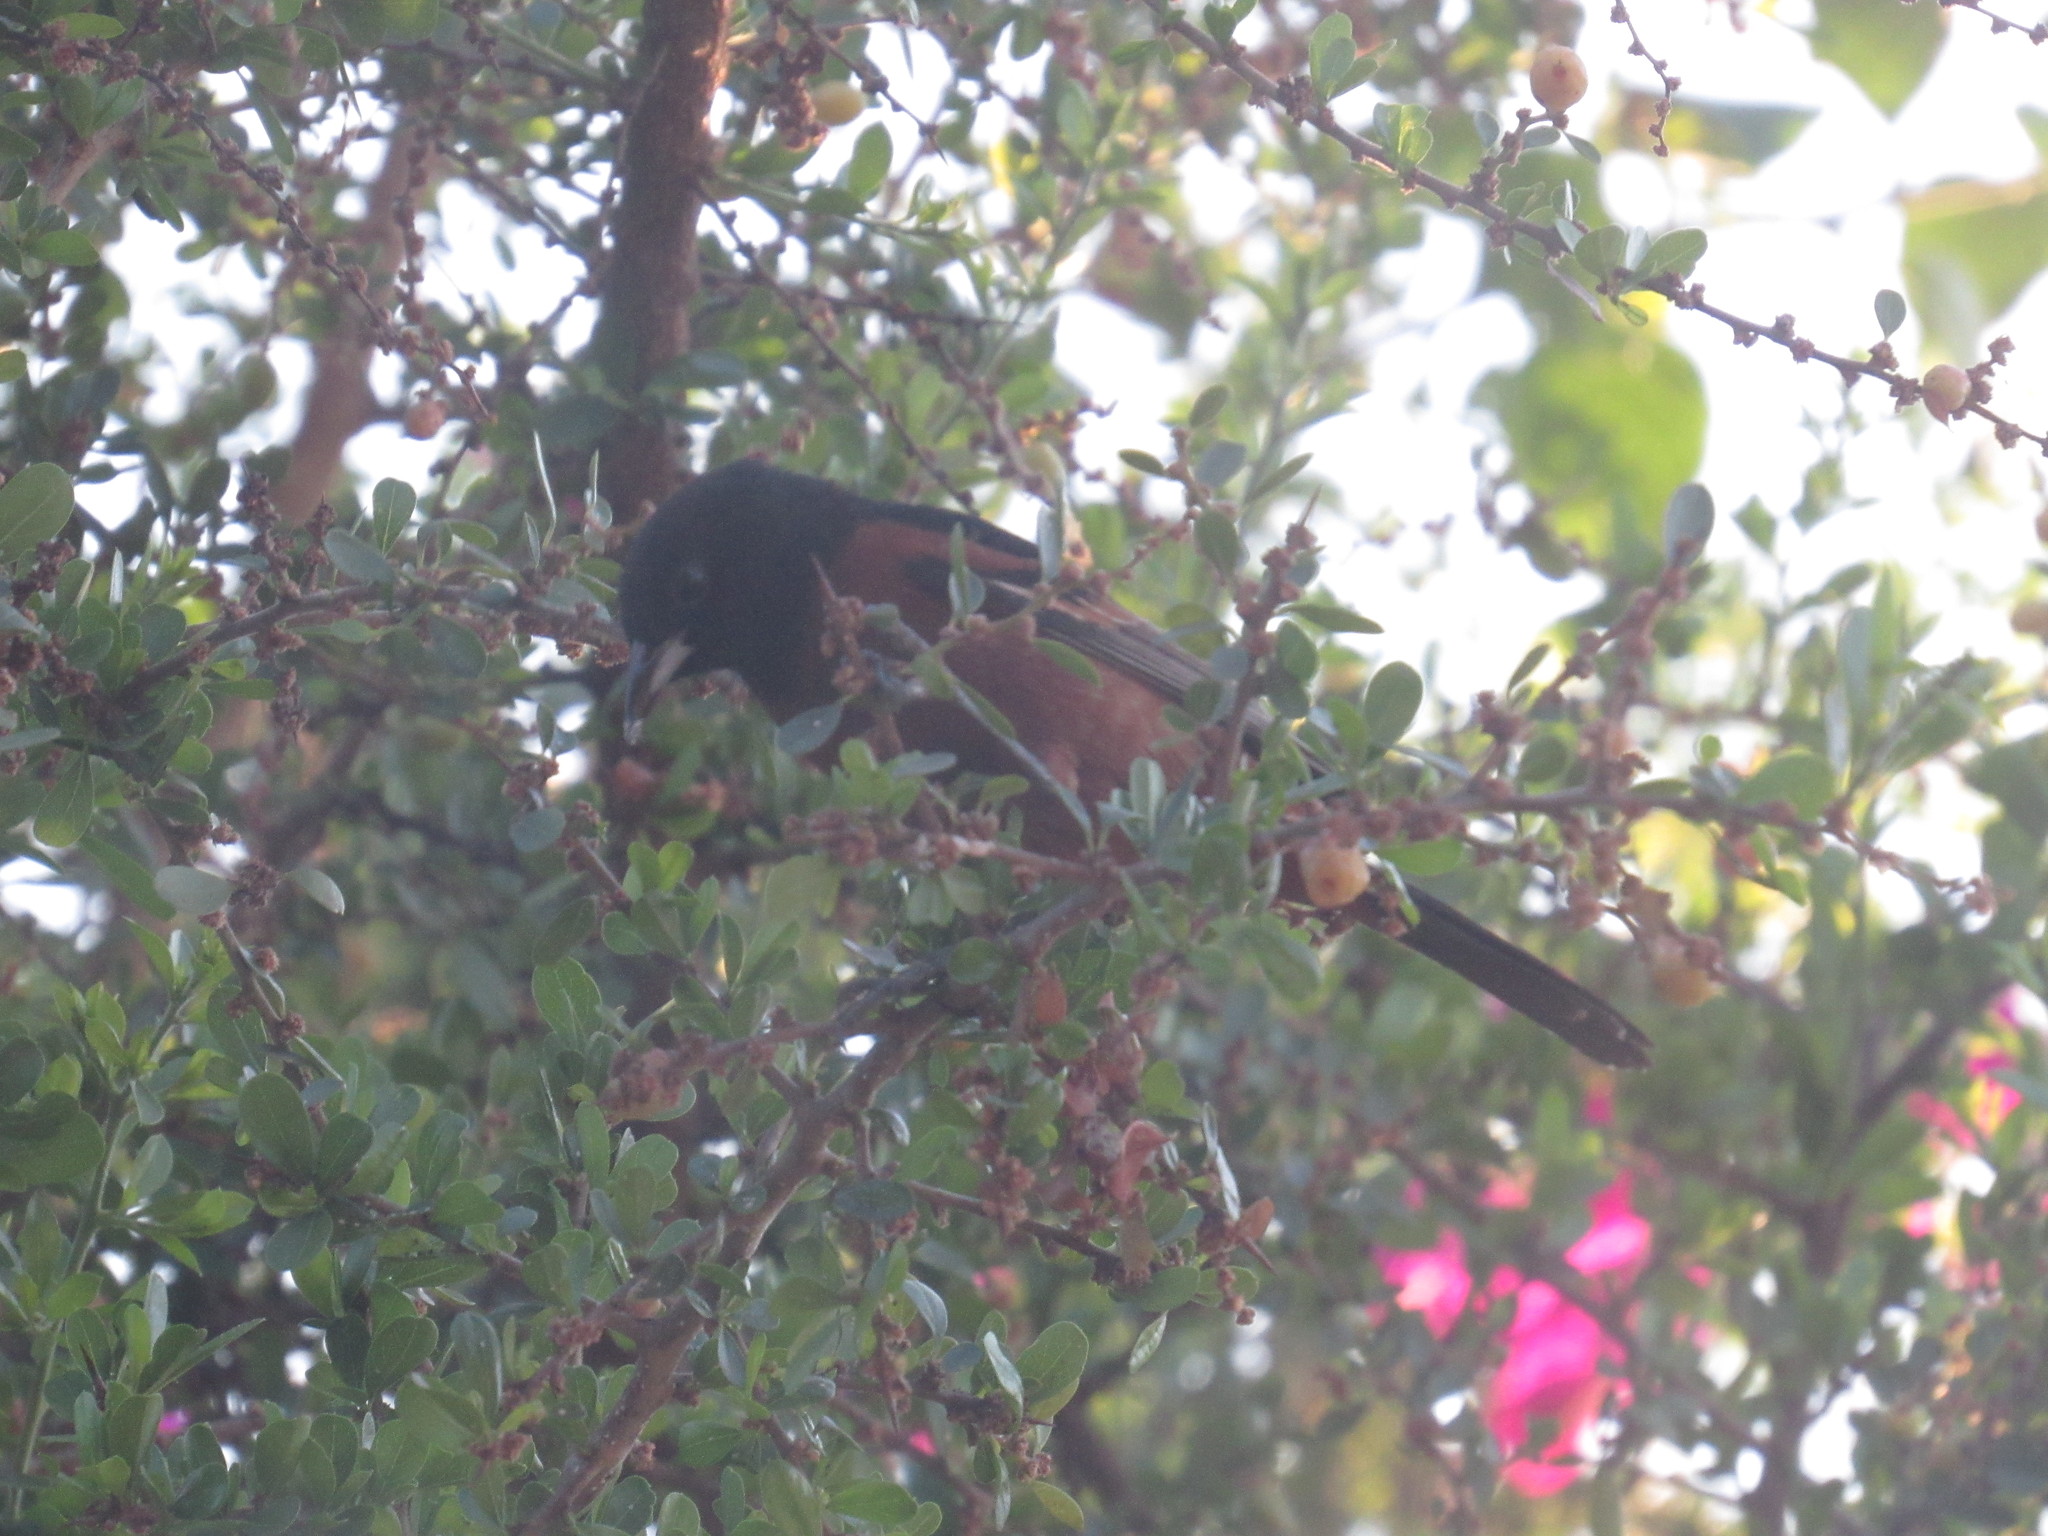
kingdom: Animalia
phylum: Chordata
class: Aves
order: Passeriformes
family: Icteridae
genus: Icterus
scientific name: Icterus spurius
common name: Orchard oriole
